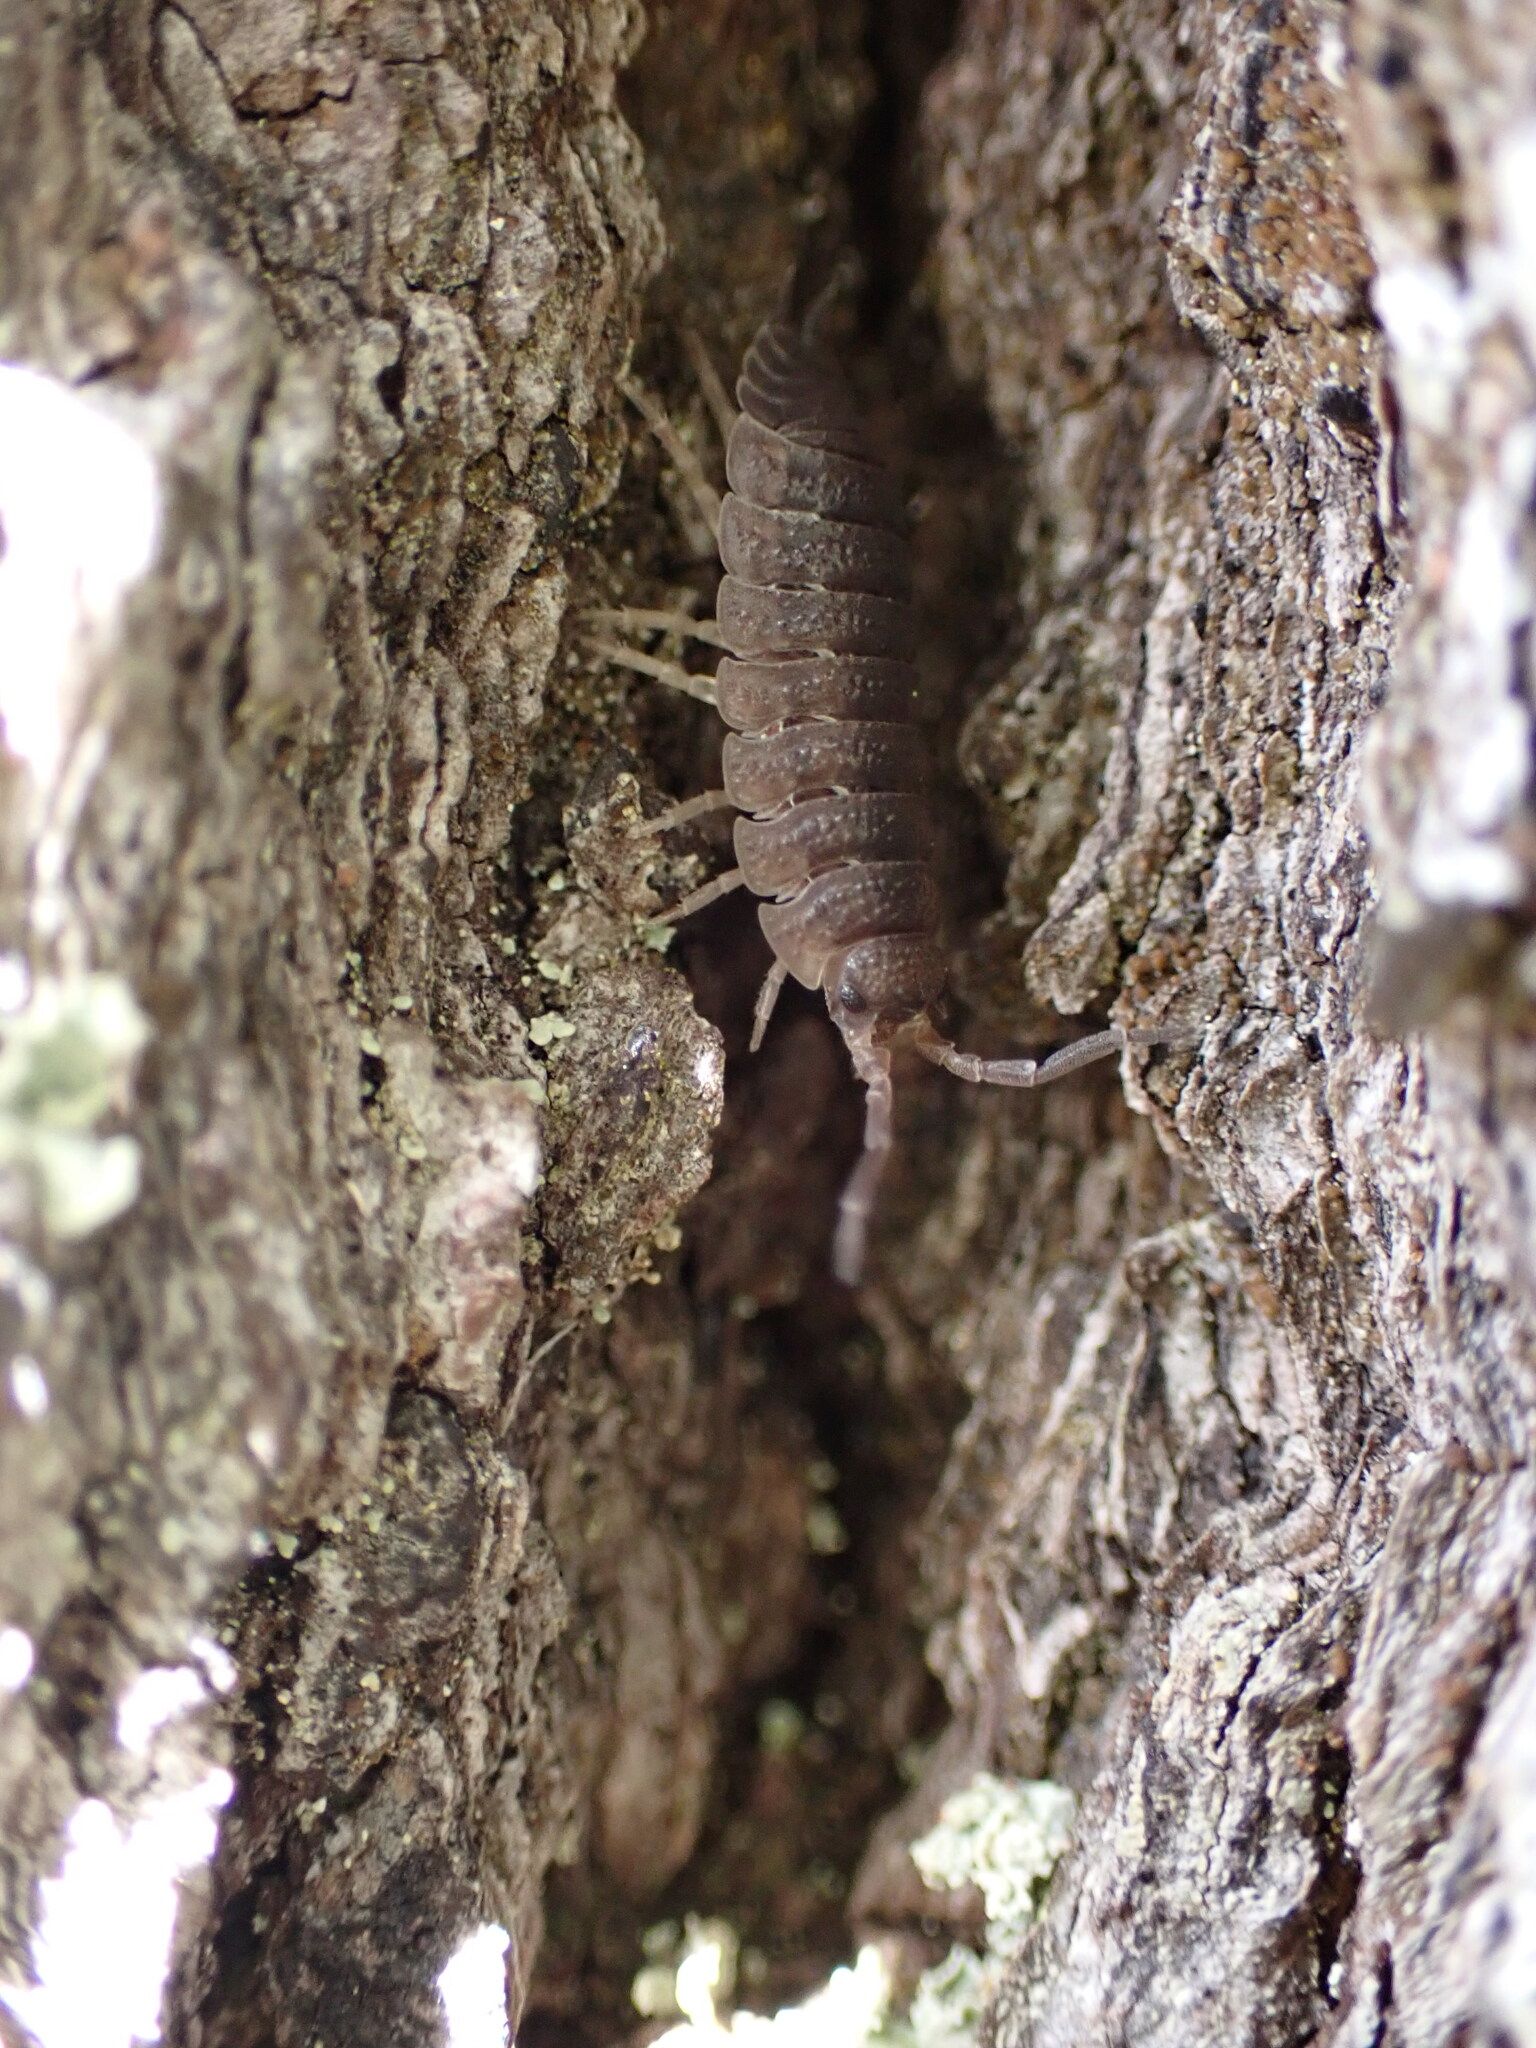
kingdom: Animalia
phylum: Arthropoda
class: Malacostraca
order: Isopoda
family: Porcellionidae
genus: Porcellio
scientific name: Porcellio scaber
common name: Common rough woodlouse
